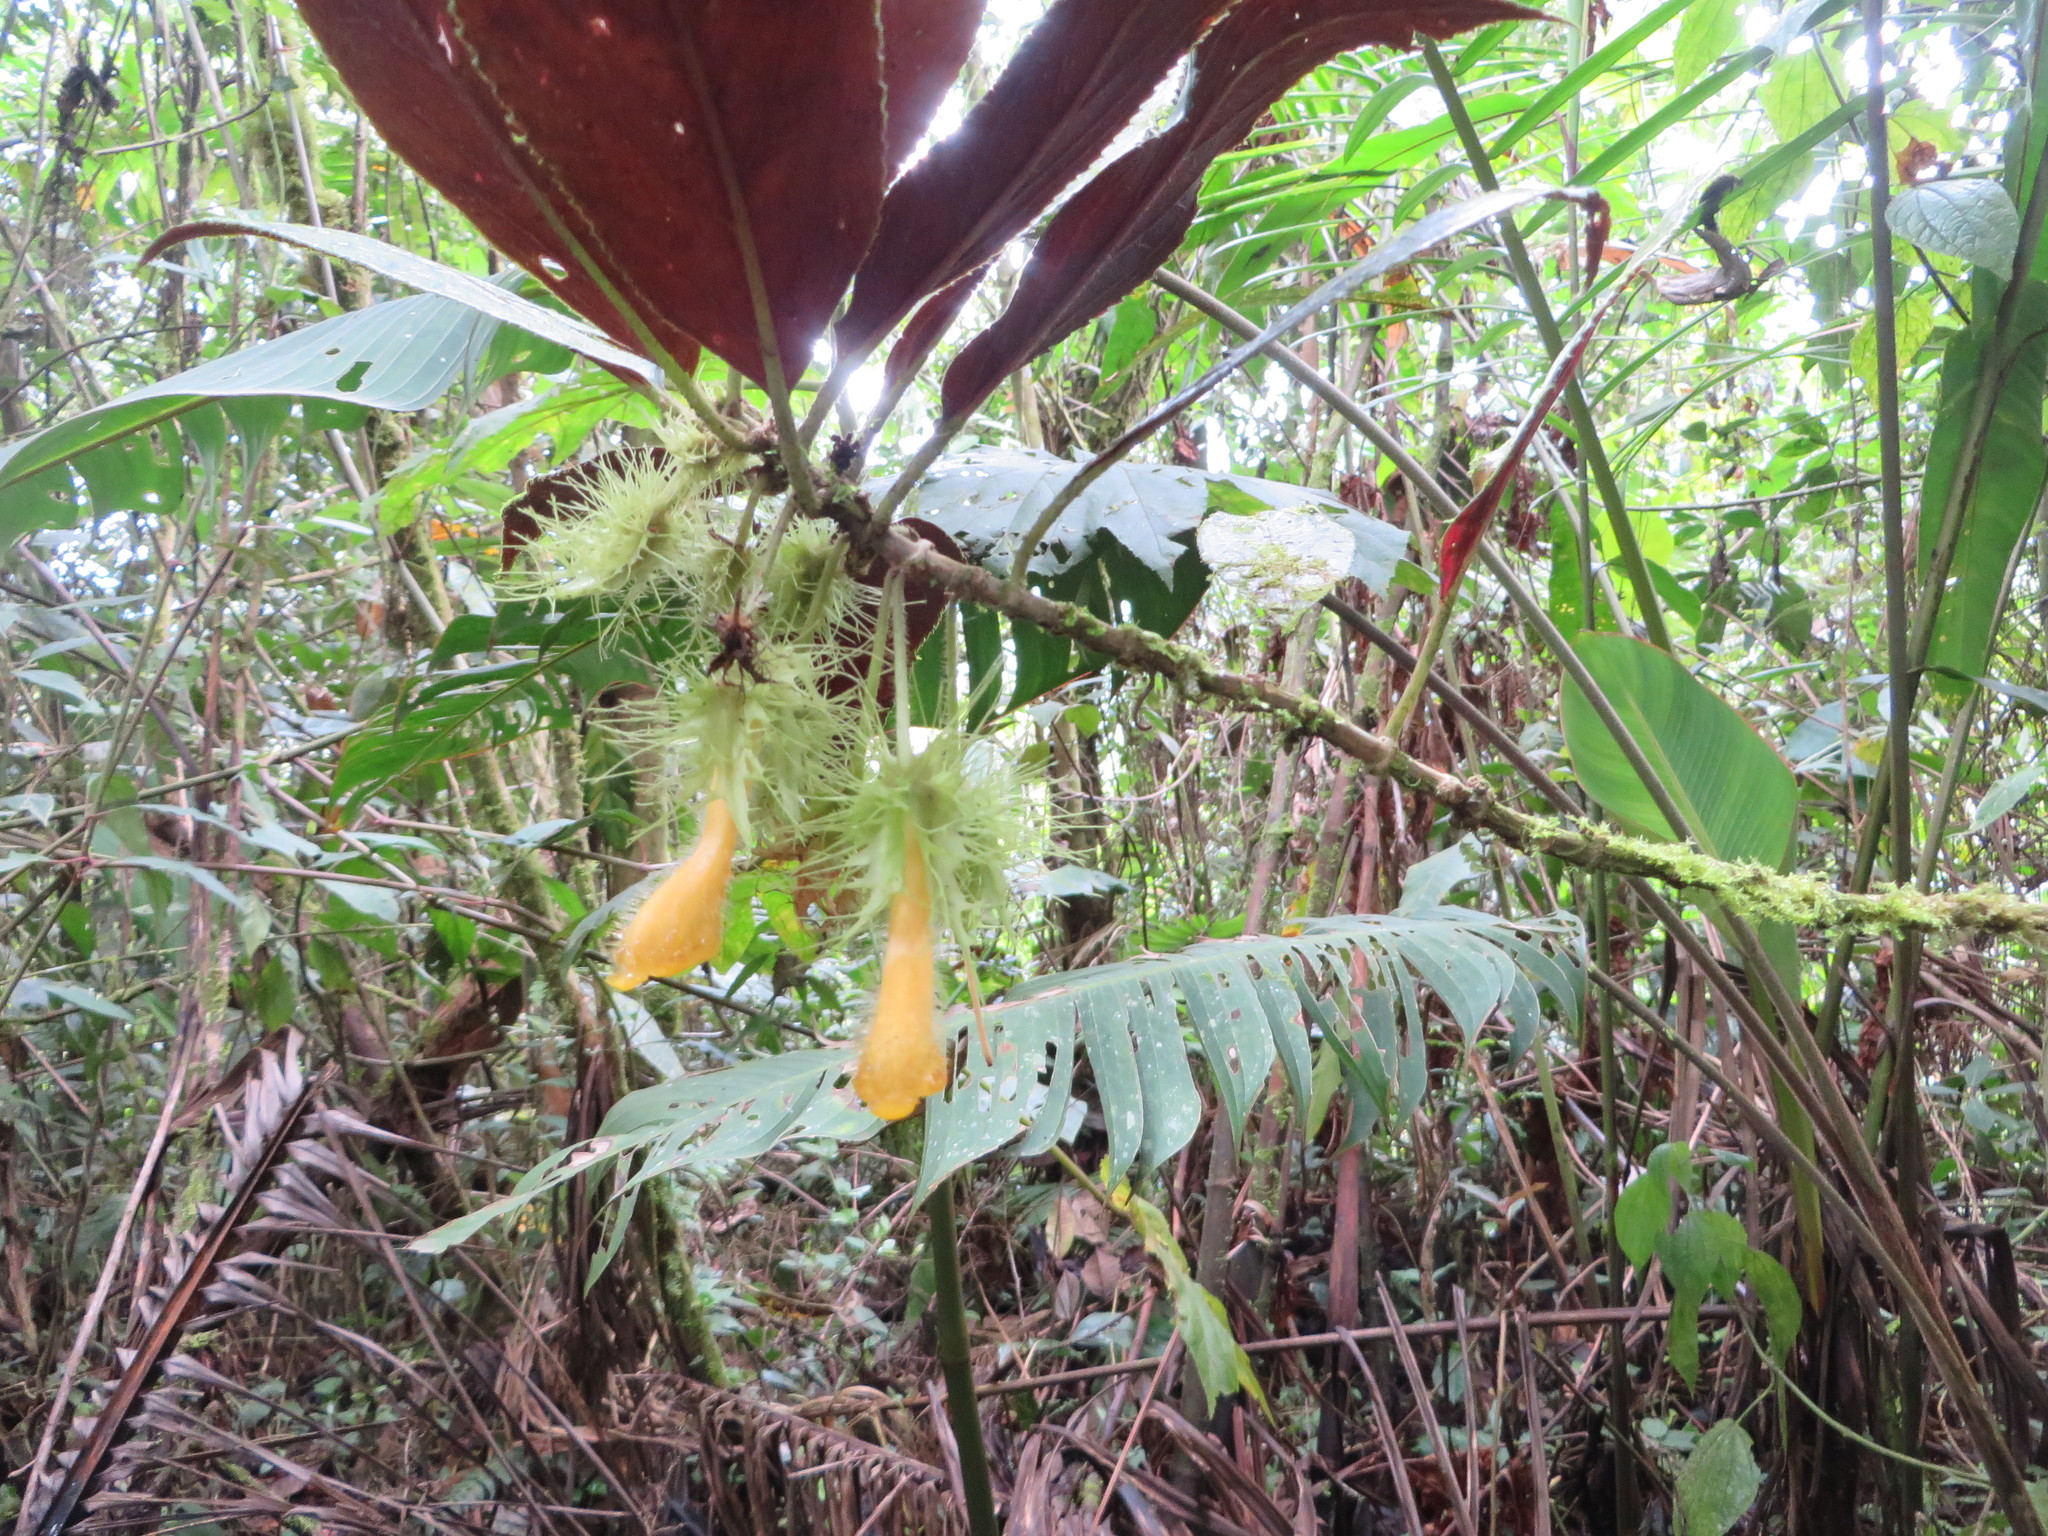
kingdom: Plantae
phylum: Tracheophyta
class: Magnoliopsida
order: Lamiales
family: Gesneriaceae
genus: Glossoloma
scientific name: Glossoloma purpureum
